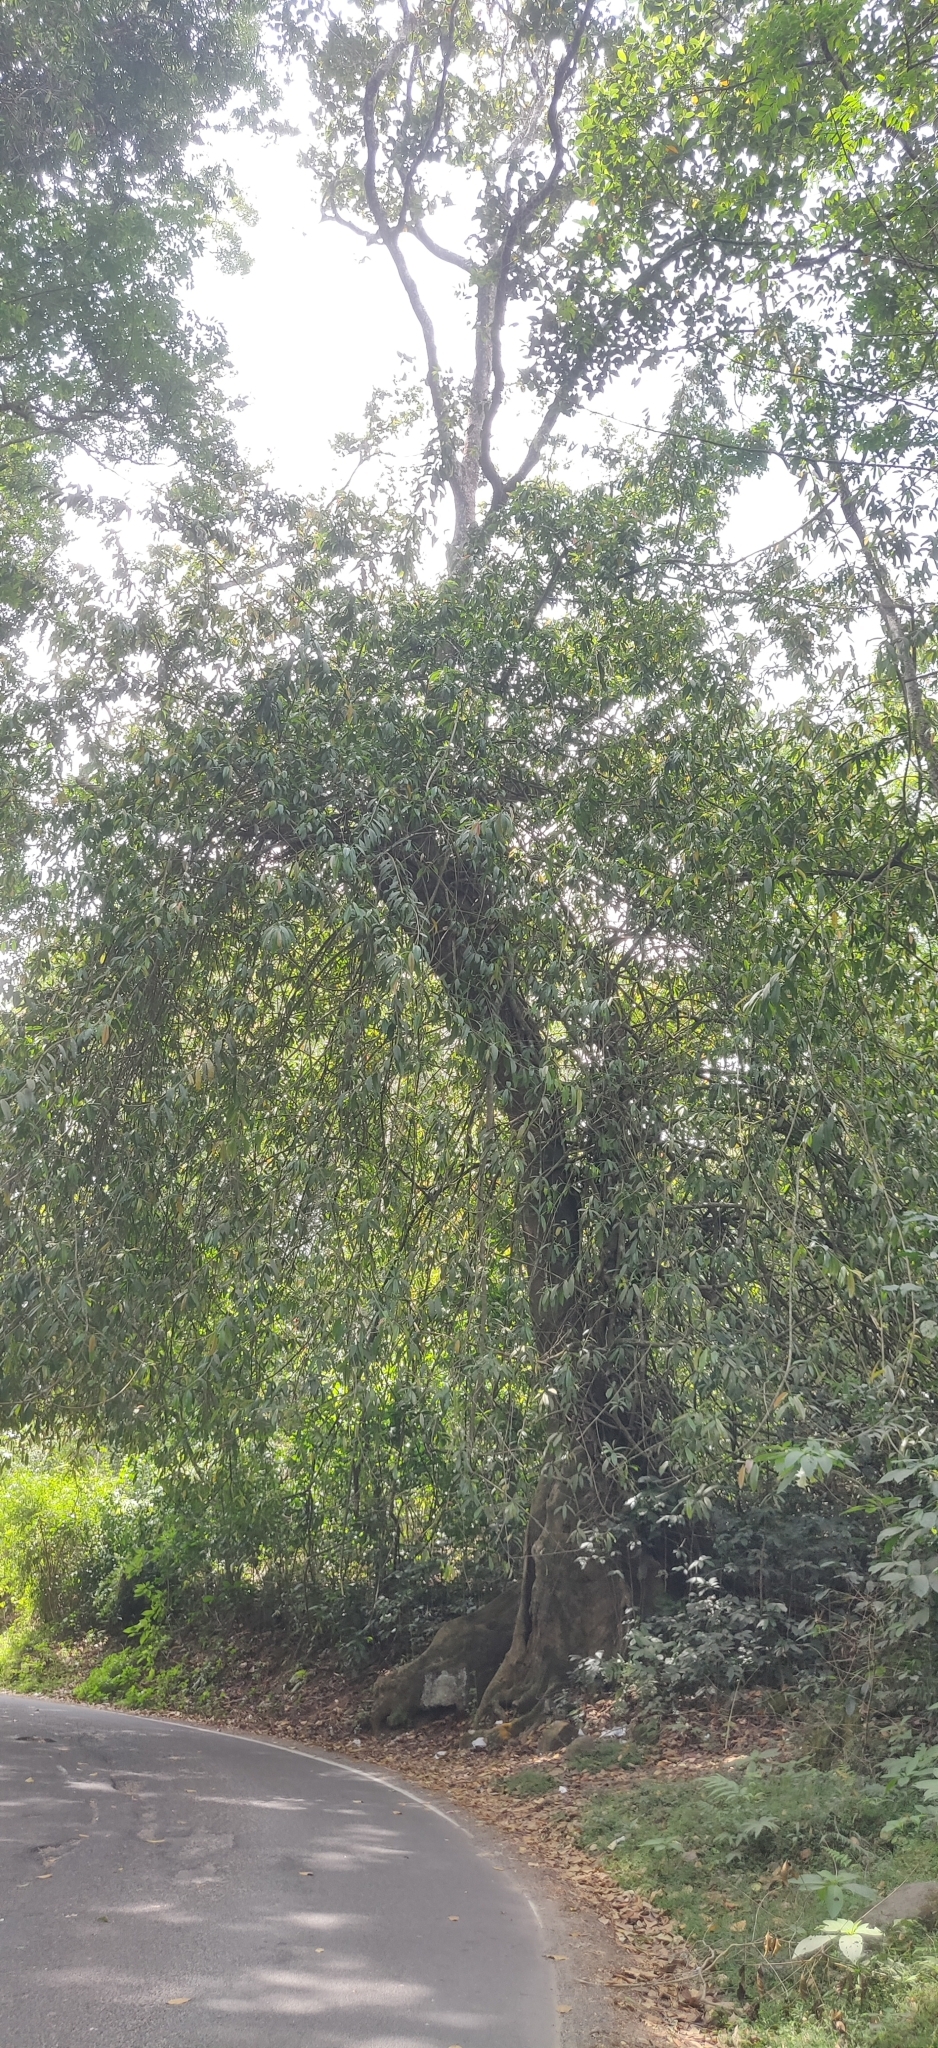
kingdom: Plantae
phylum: Tracheophyta
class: Magnoliopsida
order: Rosales
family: Moraceae
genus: Ficus
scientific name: Ficus travancorica
